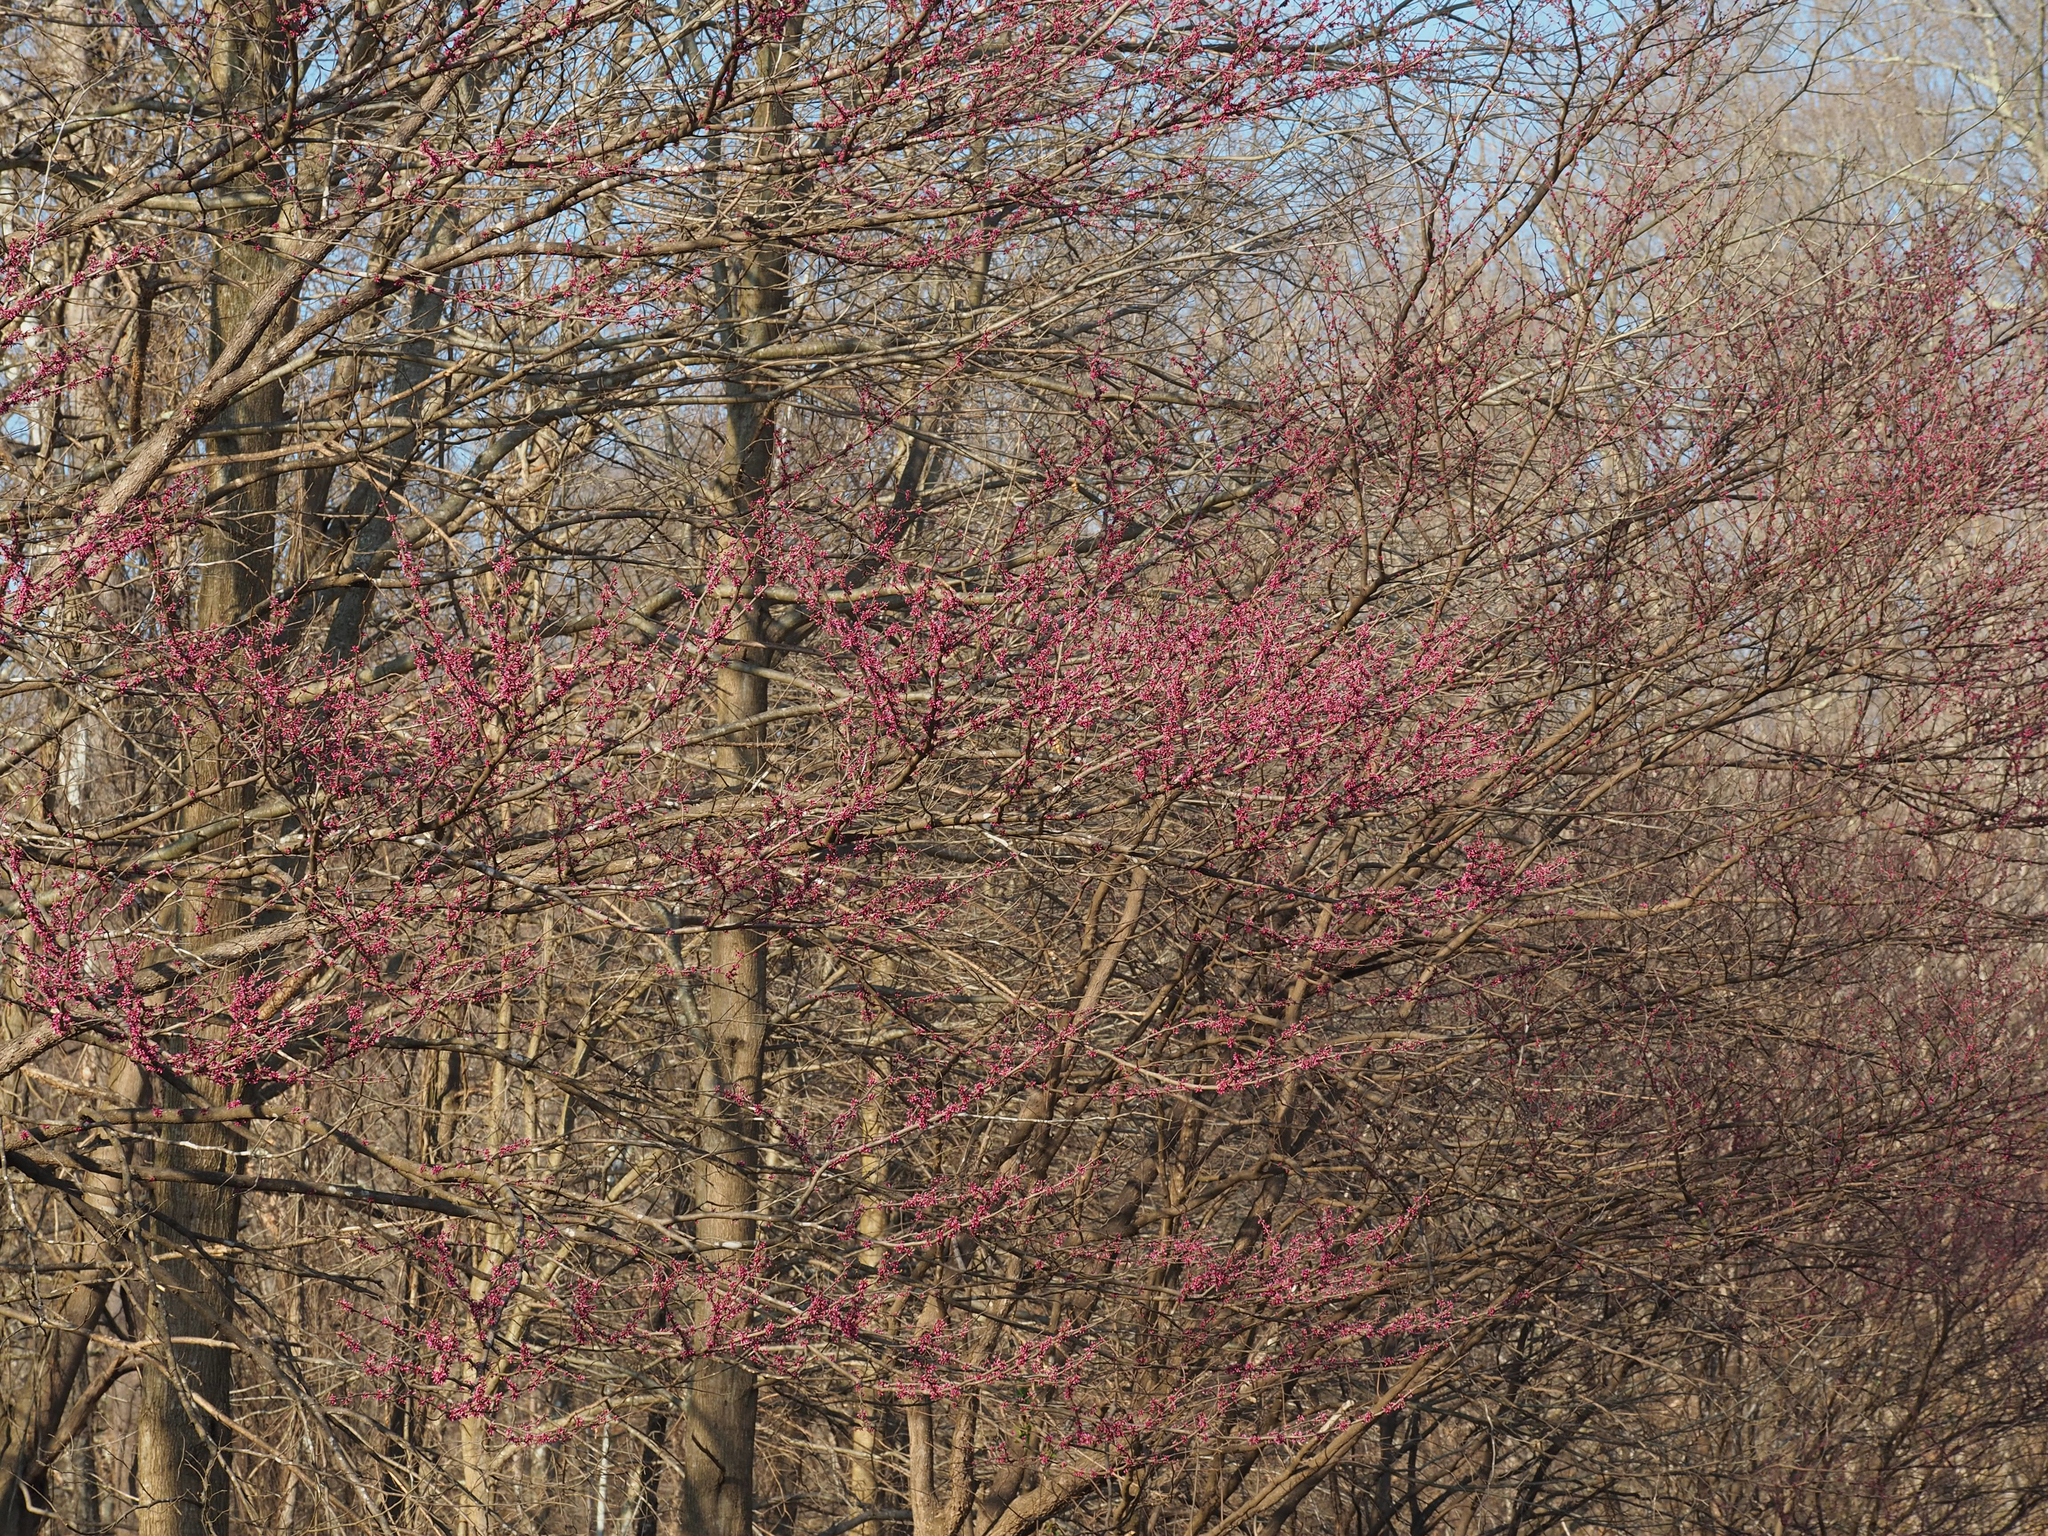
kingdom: Plantae
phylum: Tracheophyta
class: Magnoliopsida
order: Fabales
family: Fabaceae
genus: Cercis
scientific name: Cercis canadensis
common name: Eastern redbud
